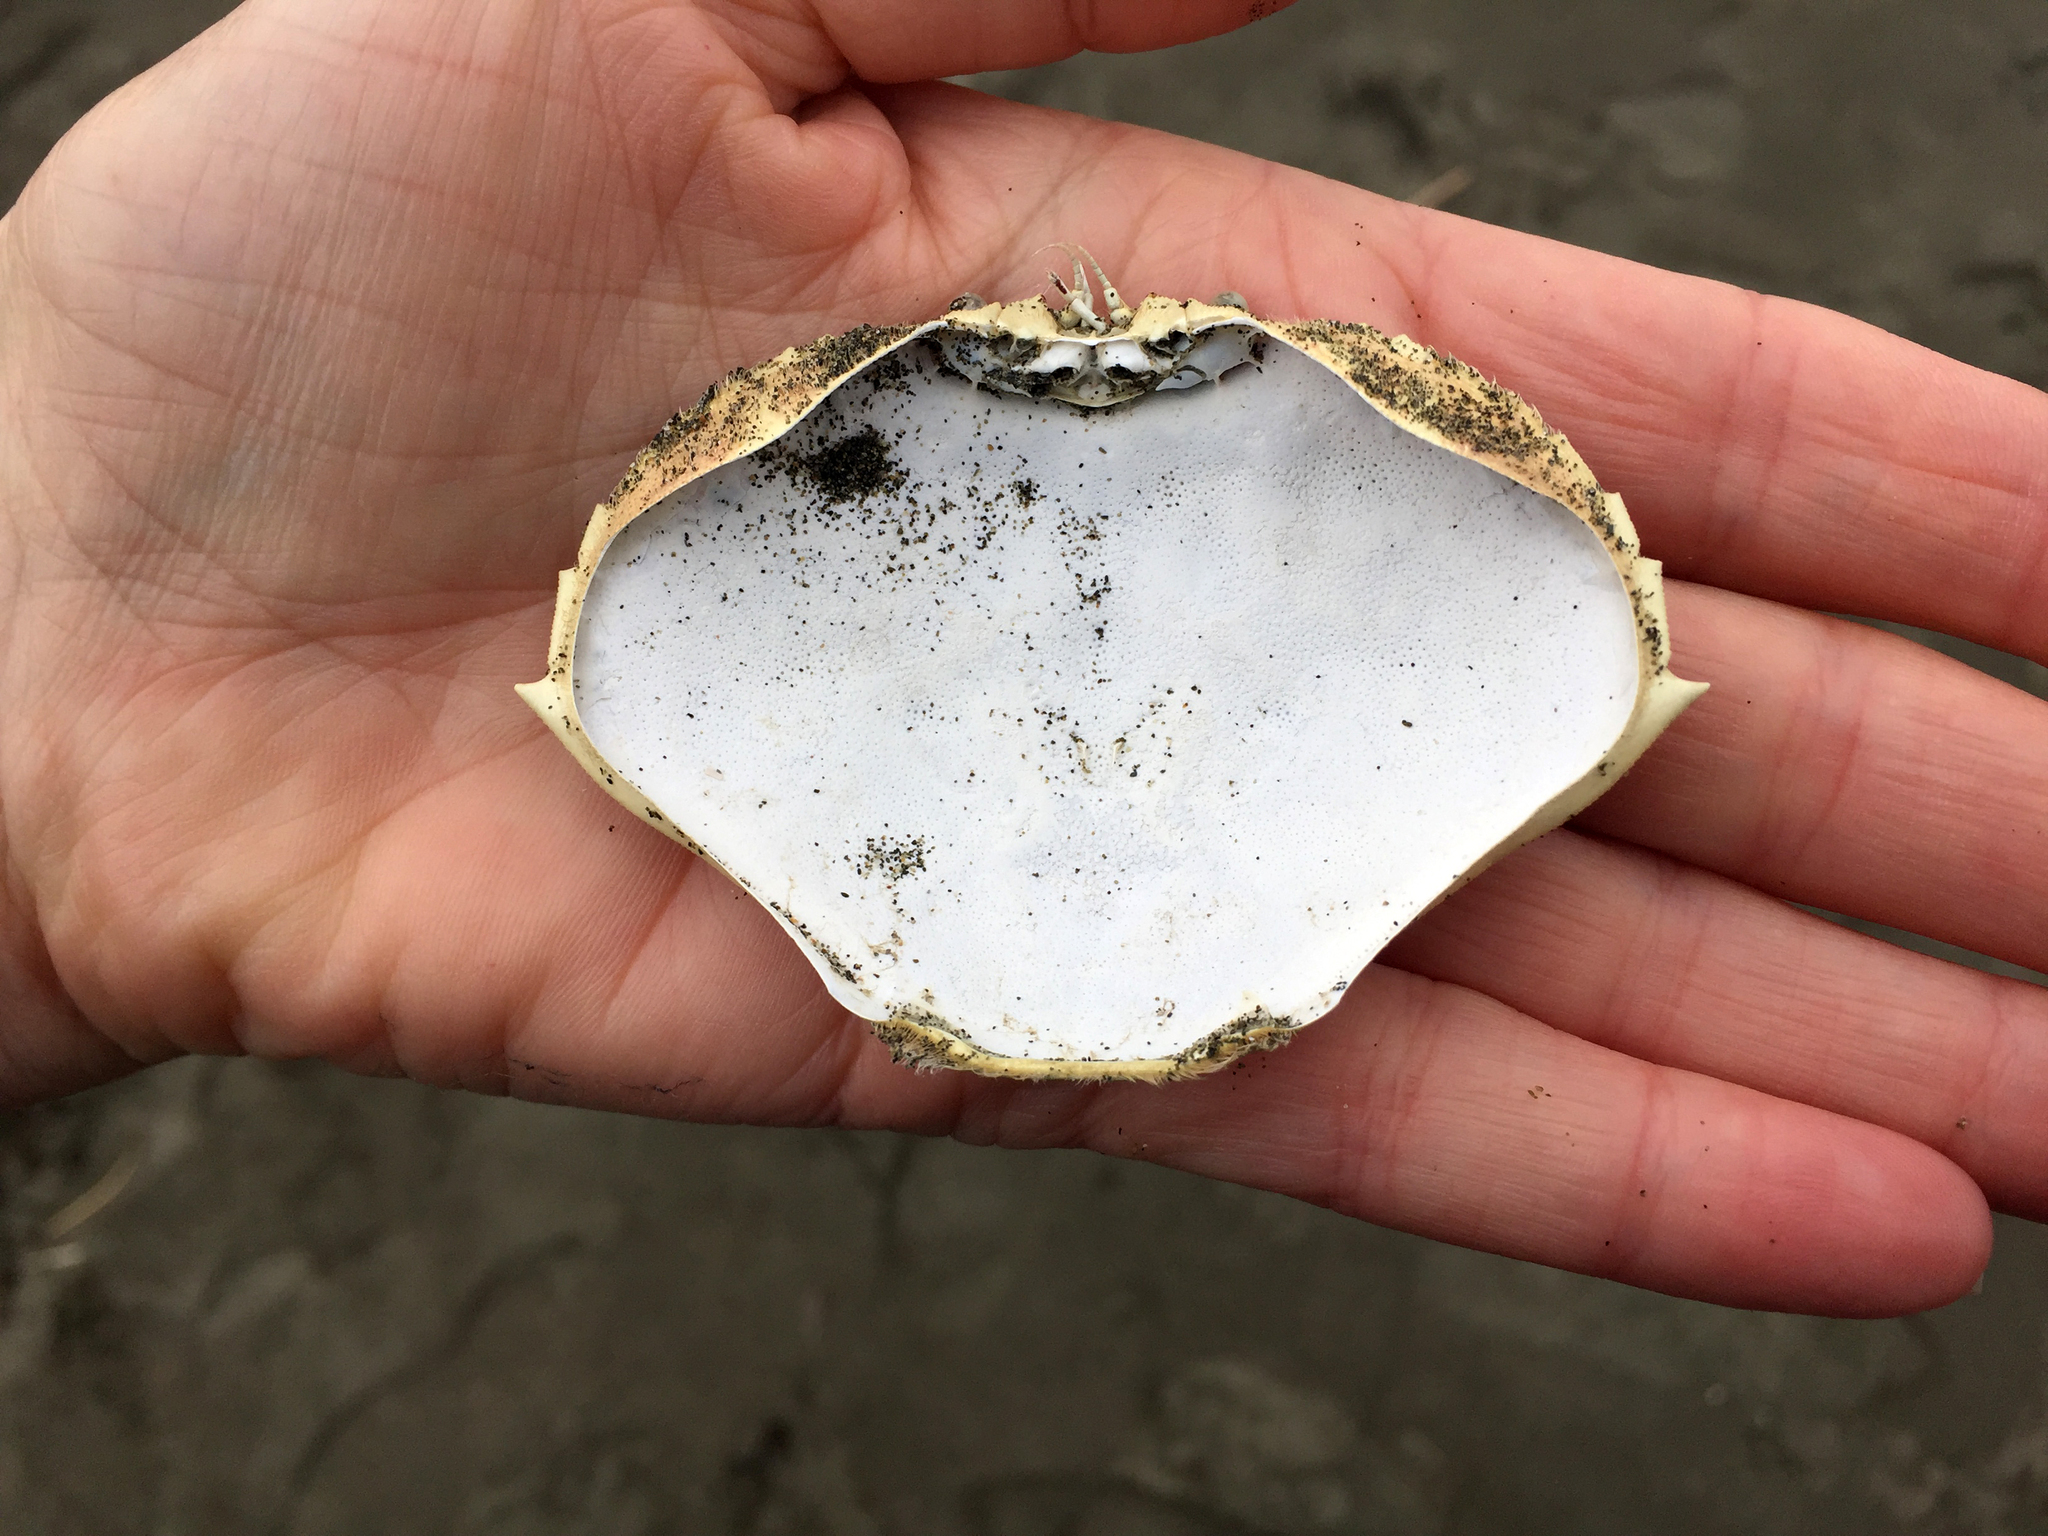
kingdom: Animalia
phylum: Arthropoda
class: Malacostraca
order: Decapoda
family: Cancridae
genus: Metacarcinus
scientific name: Metacarcinus magister
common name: Californian crab
